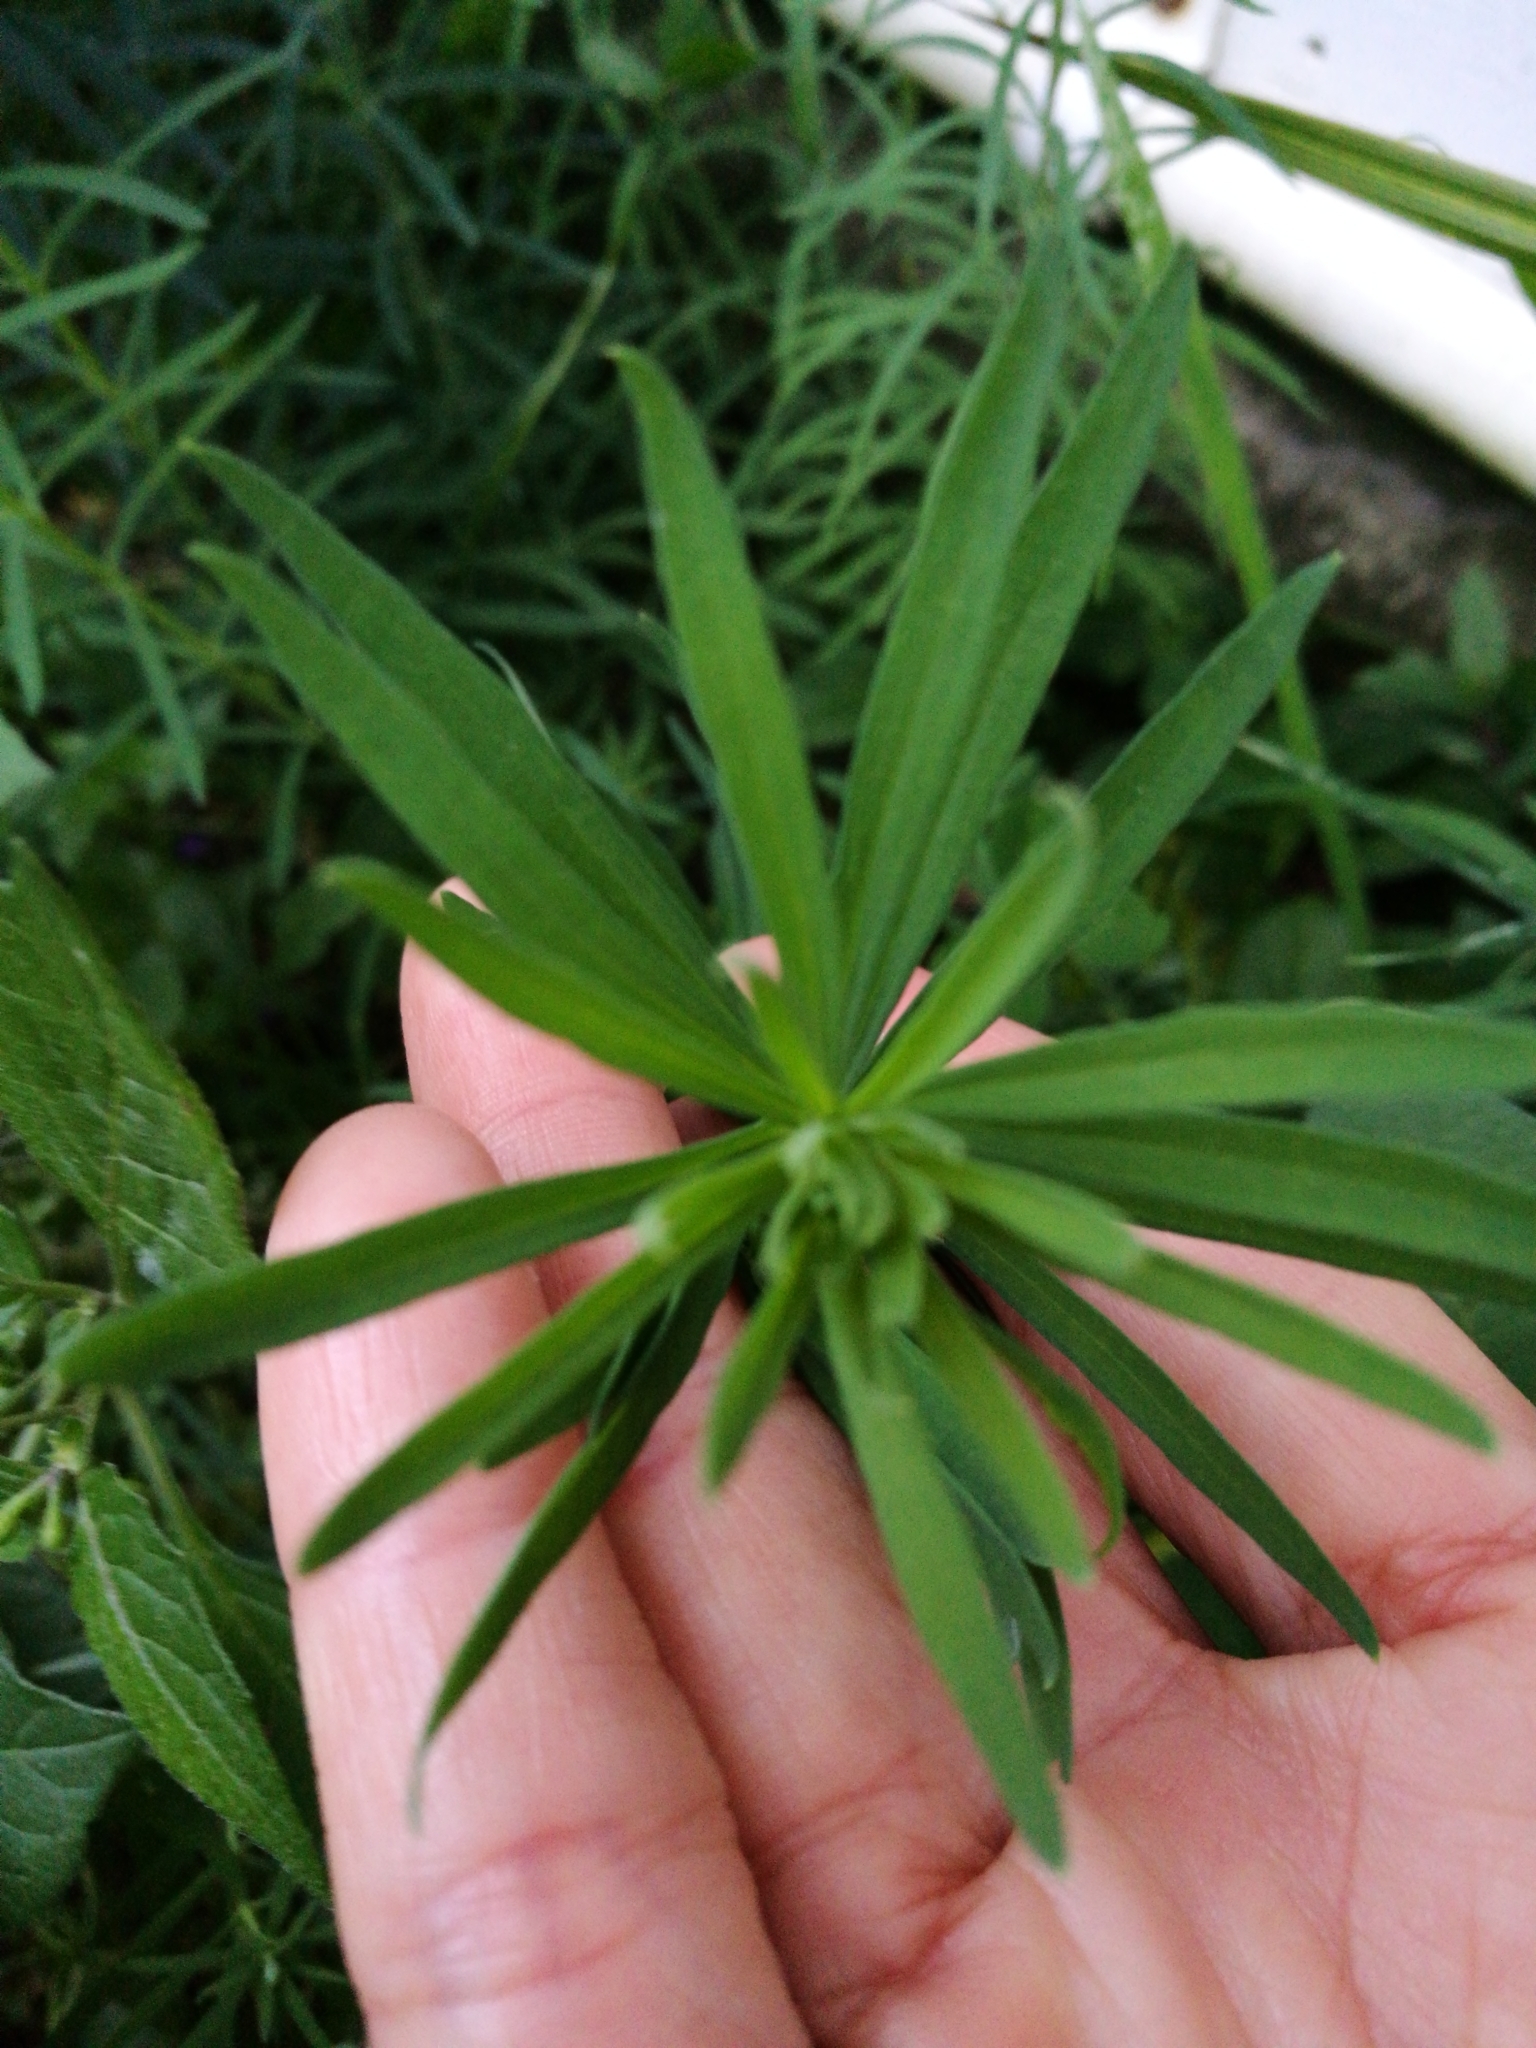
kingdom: Plantae
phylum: Tracheophyta
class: Magnoliopsida
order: Lamiales
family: Plantaginaceae
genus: Linaria
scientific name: Linaria purpurea
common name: Purple toadflax
